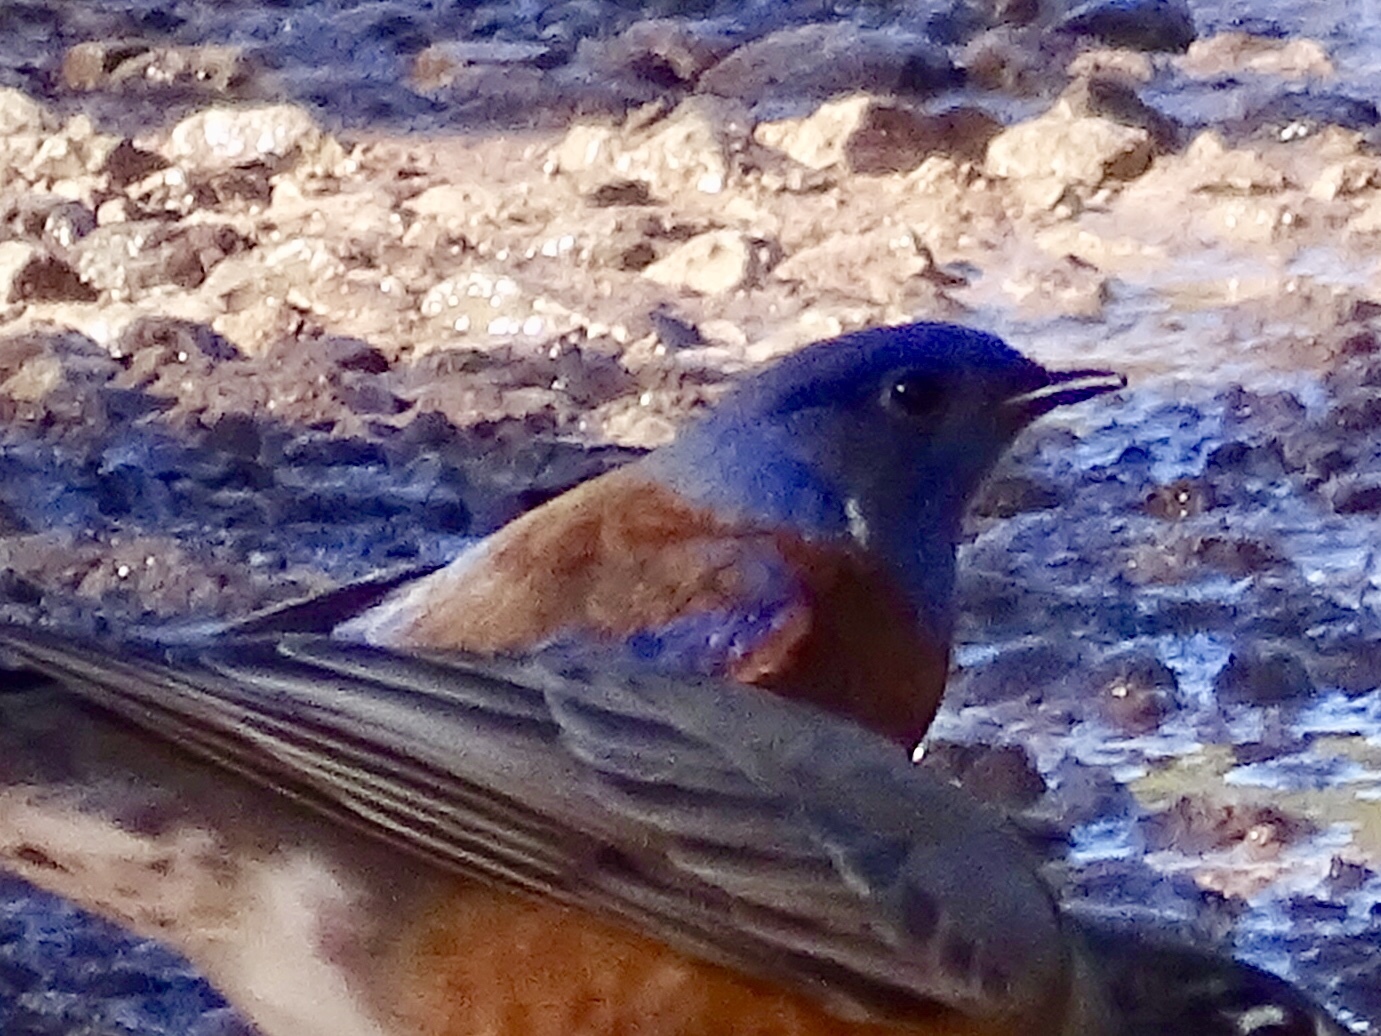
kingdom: Animalia
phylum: Chordata
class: Aves
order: Passeriformes
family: Turdidae
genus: Sialia
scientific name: Sialia mexicana
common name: Western bluebird
